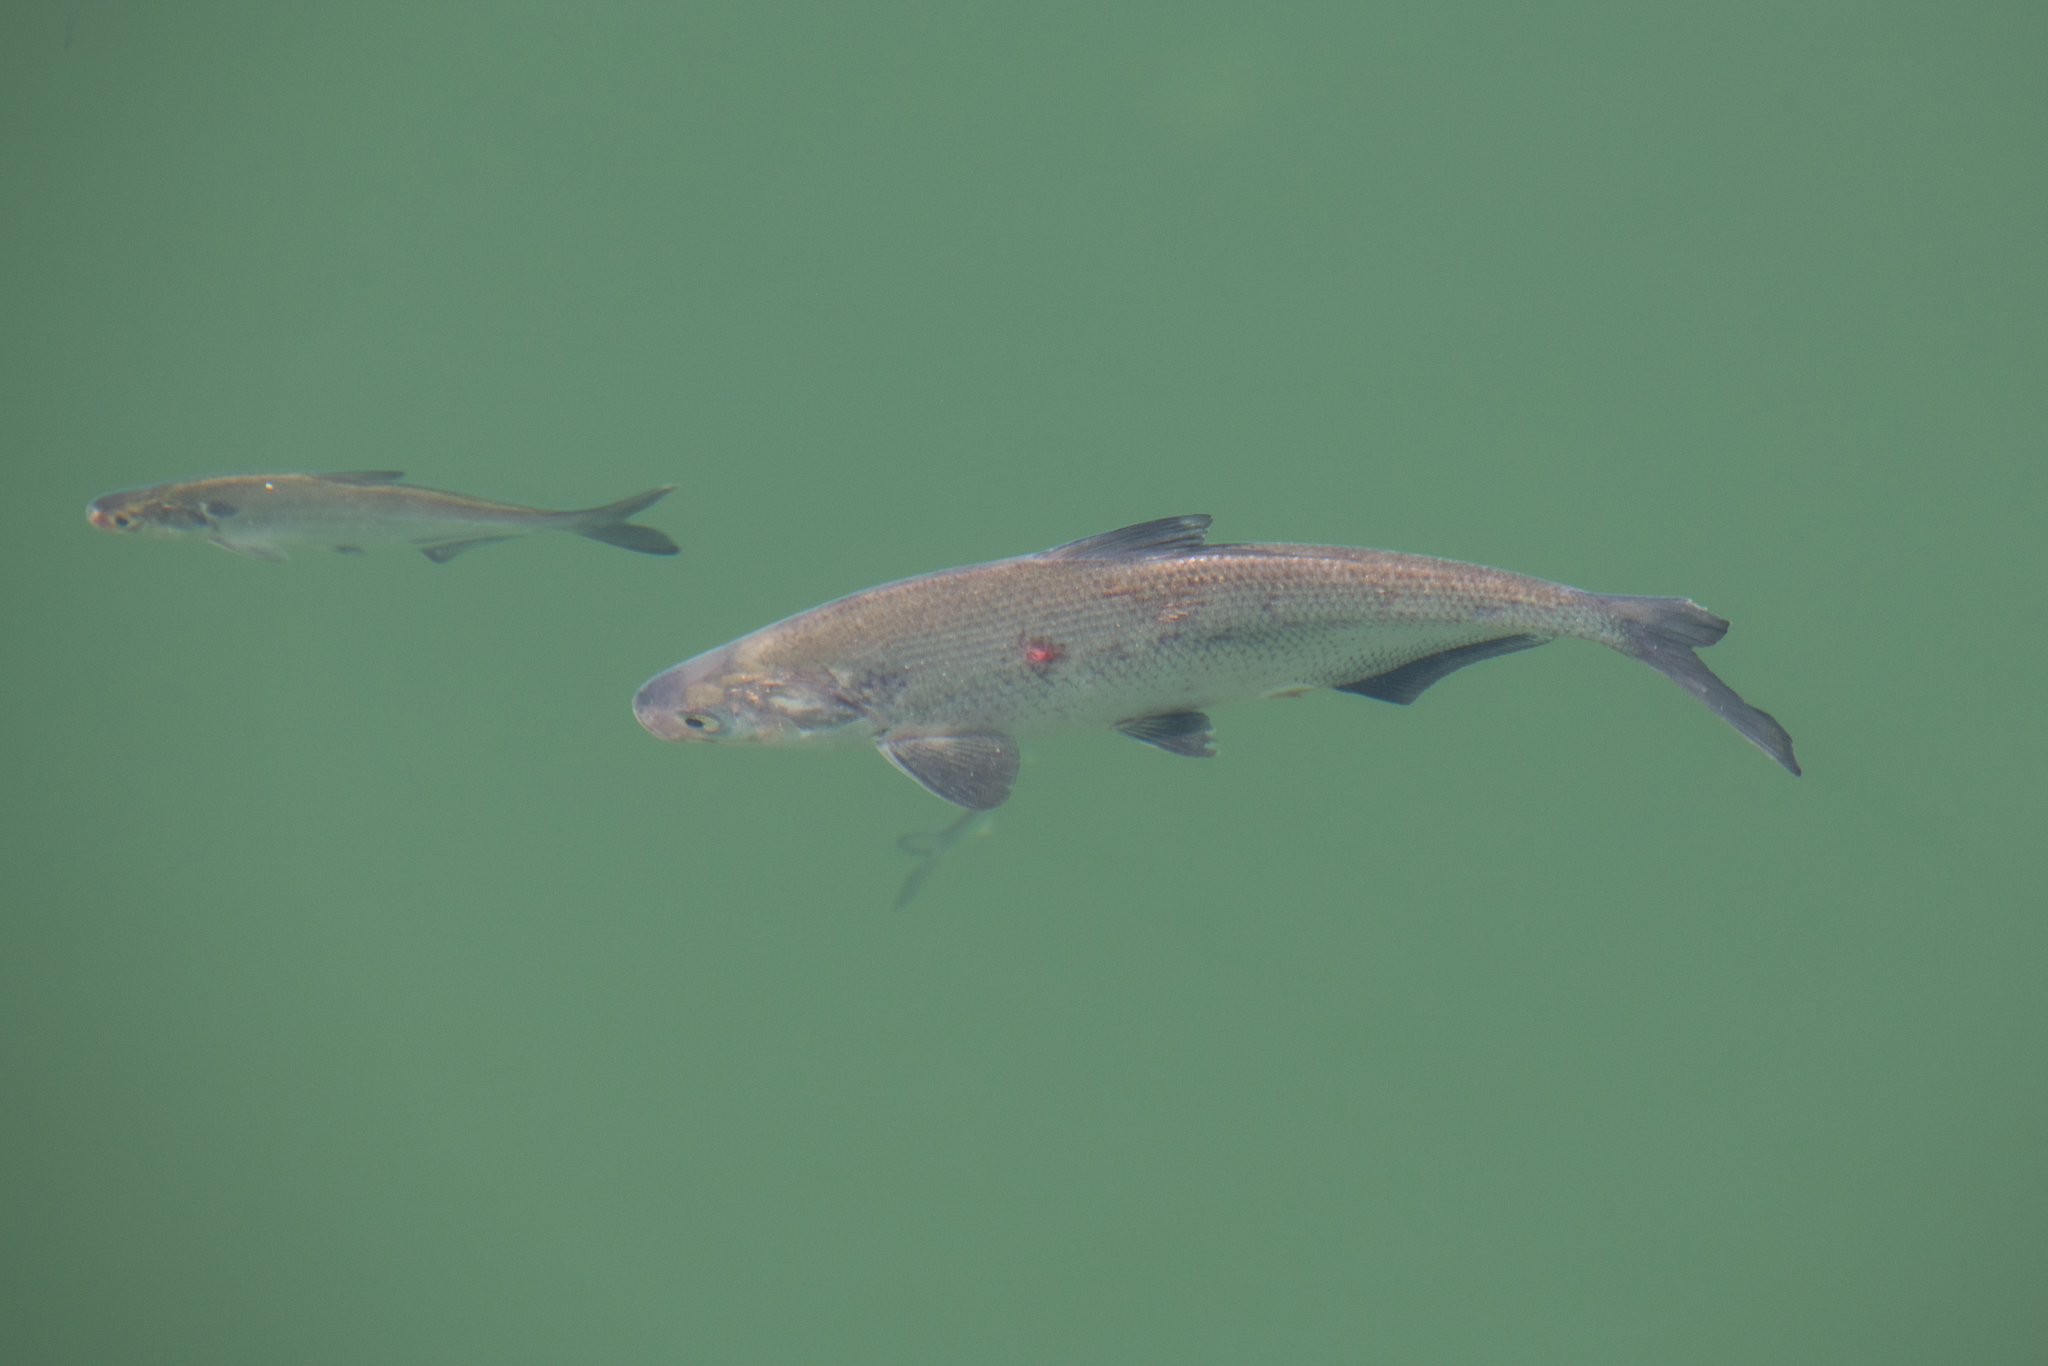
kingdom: Animalia
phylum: Chordata
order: Clupeiformes
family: Clupeidae
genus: Dorosoma
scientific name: Dorosoma cepedianum
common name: Gizzard shad
